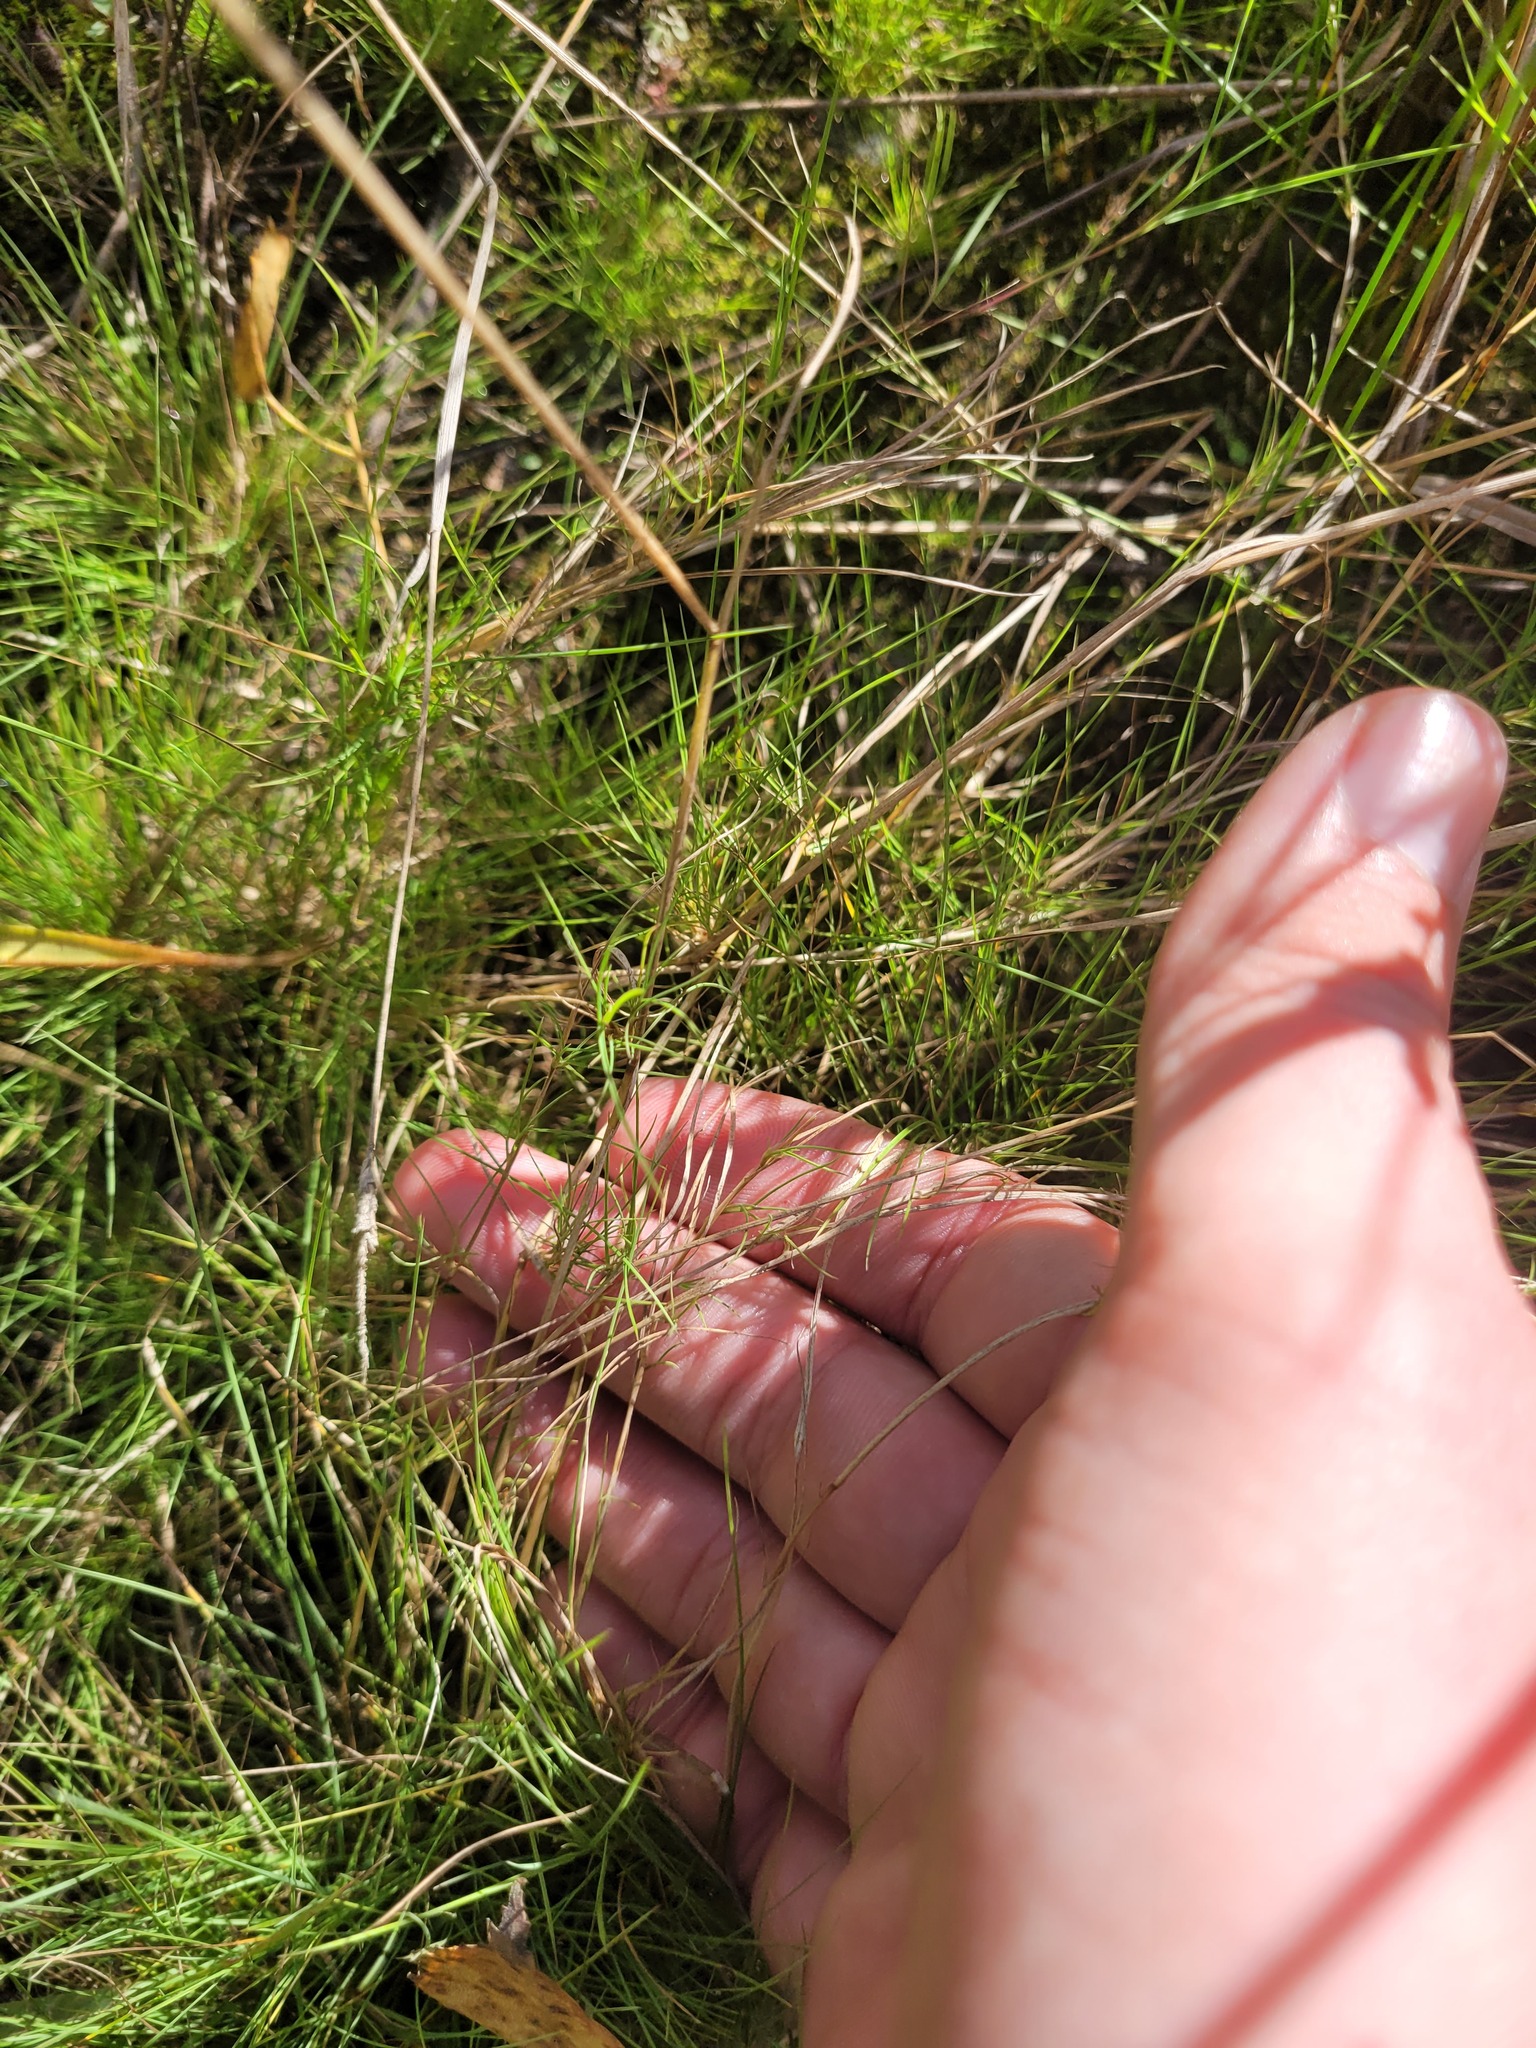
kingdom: Plantae
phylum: Tracheophyta
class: Liliopsida
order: Poales
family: Poaceae
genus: Agrostis
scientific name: Agrostis canina
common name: Velvet bent
